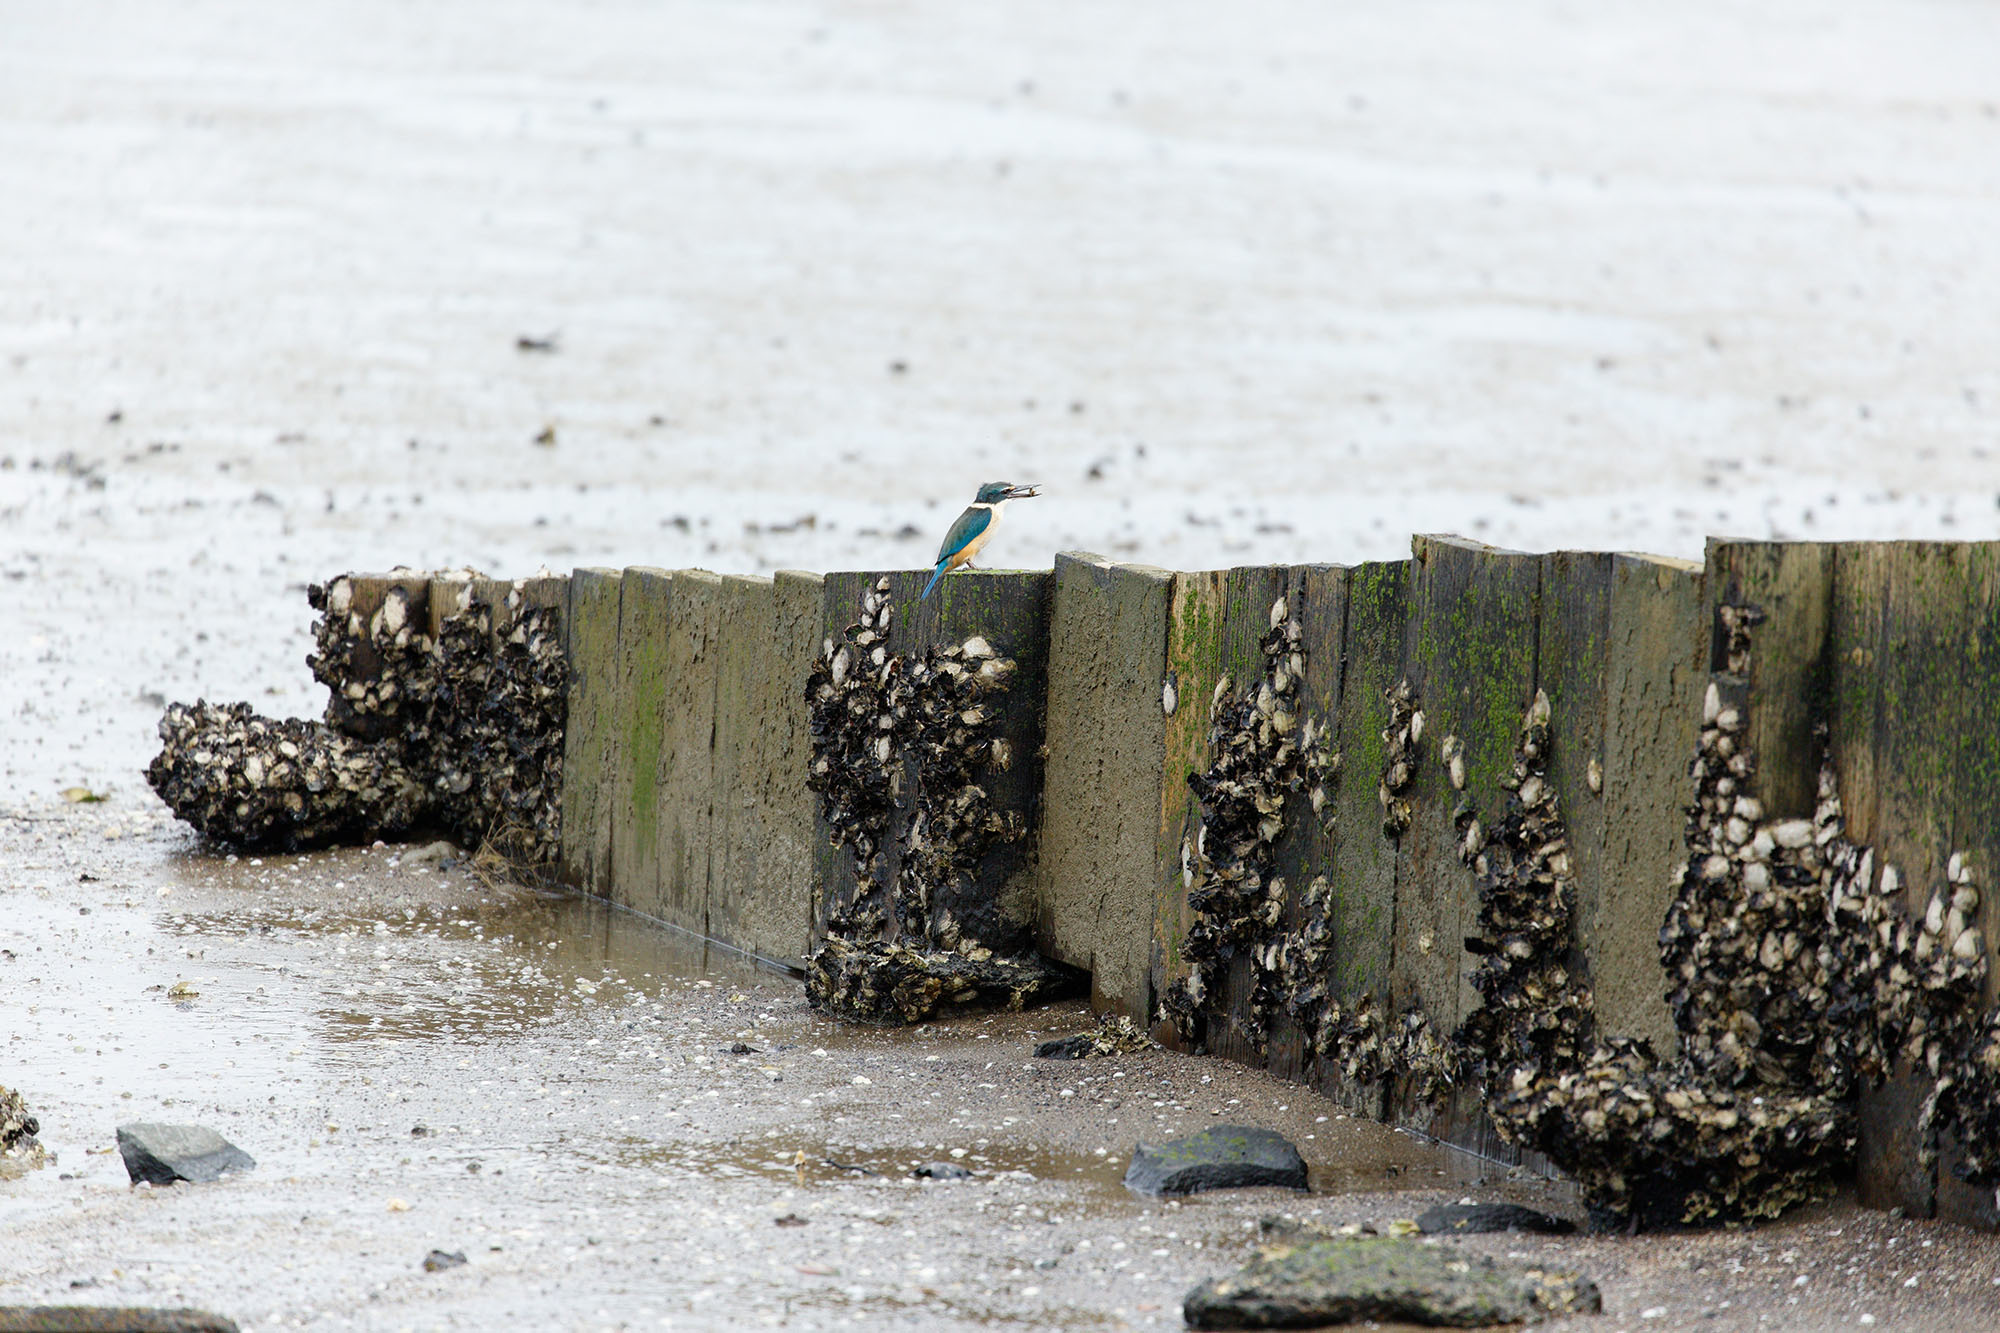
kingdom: Animalia
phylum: Chordata
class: Aves
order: Coraciiformes
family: Alcedinidae
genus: Todiramphus
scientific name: Todiramphus sanctus
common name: Sacred kingfisher
